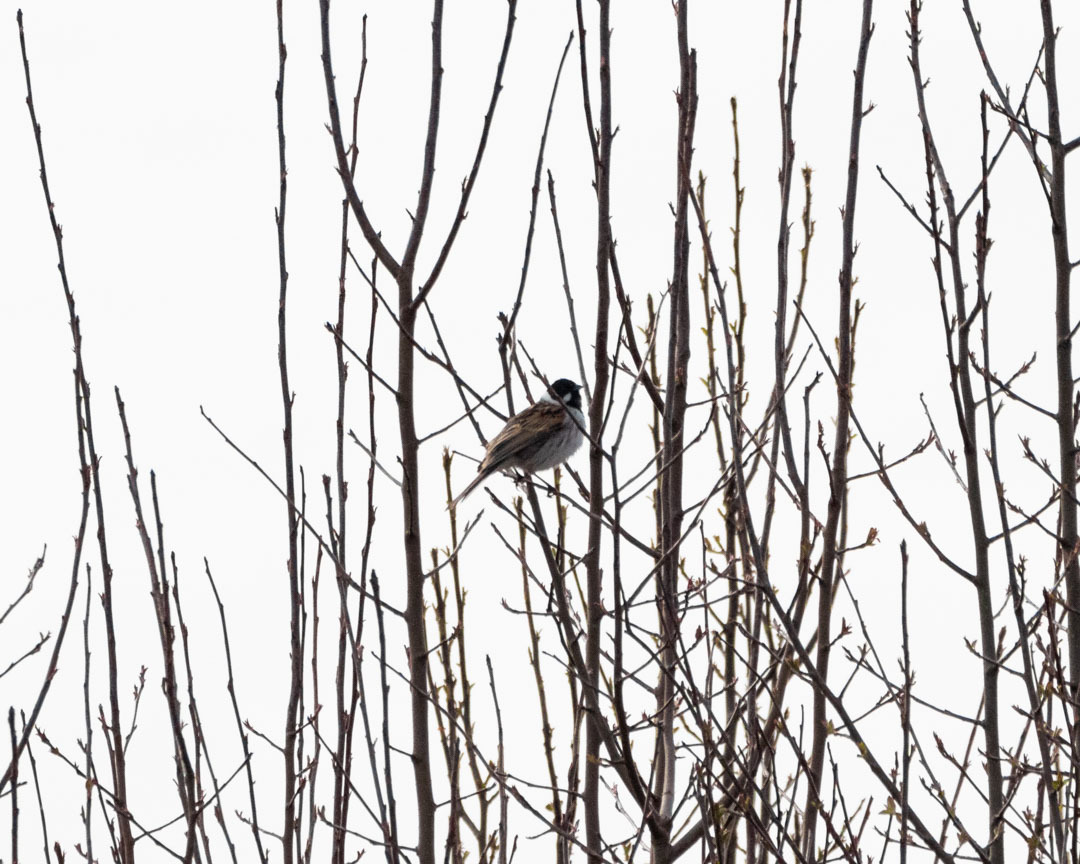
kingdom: Animalia
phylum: Chordata
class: Aves
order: Passeriformes
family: Emberizidae
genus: Emberiza
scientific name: Emberiza schoeniclus
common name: Reed bunting
